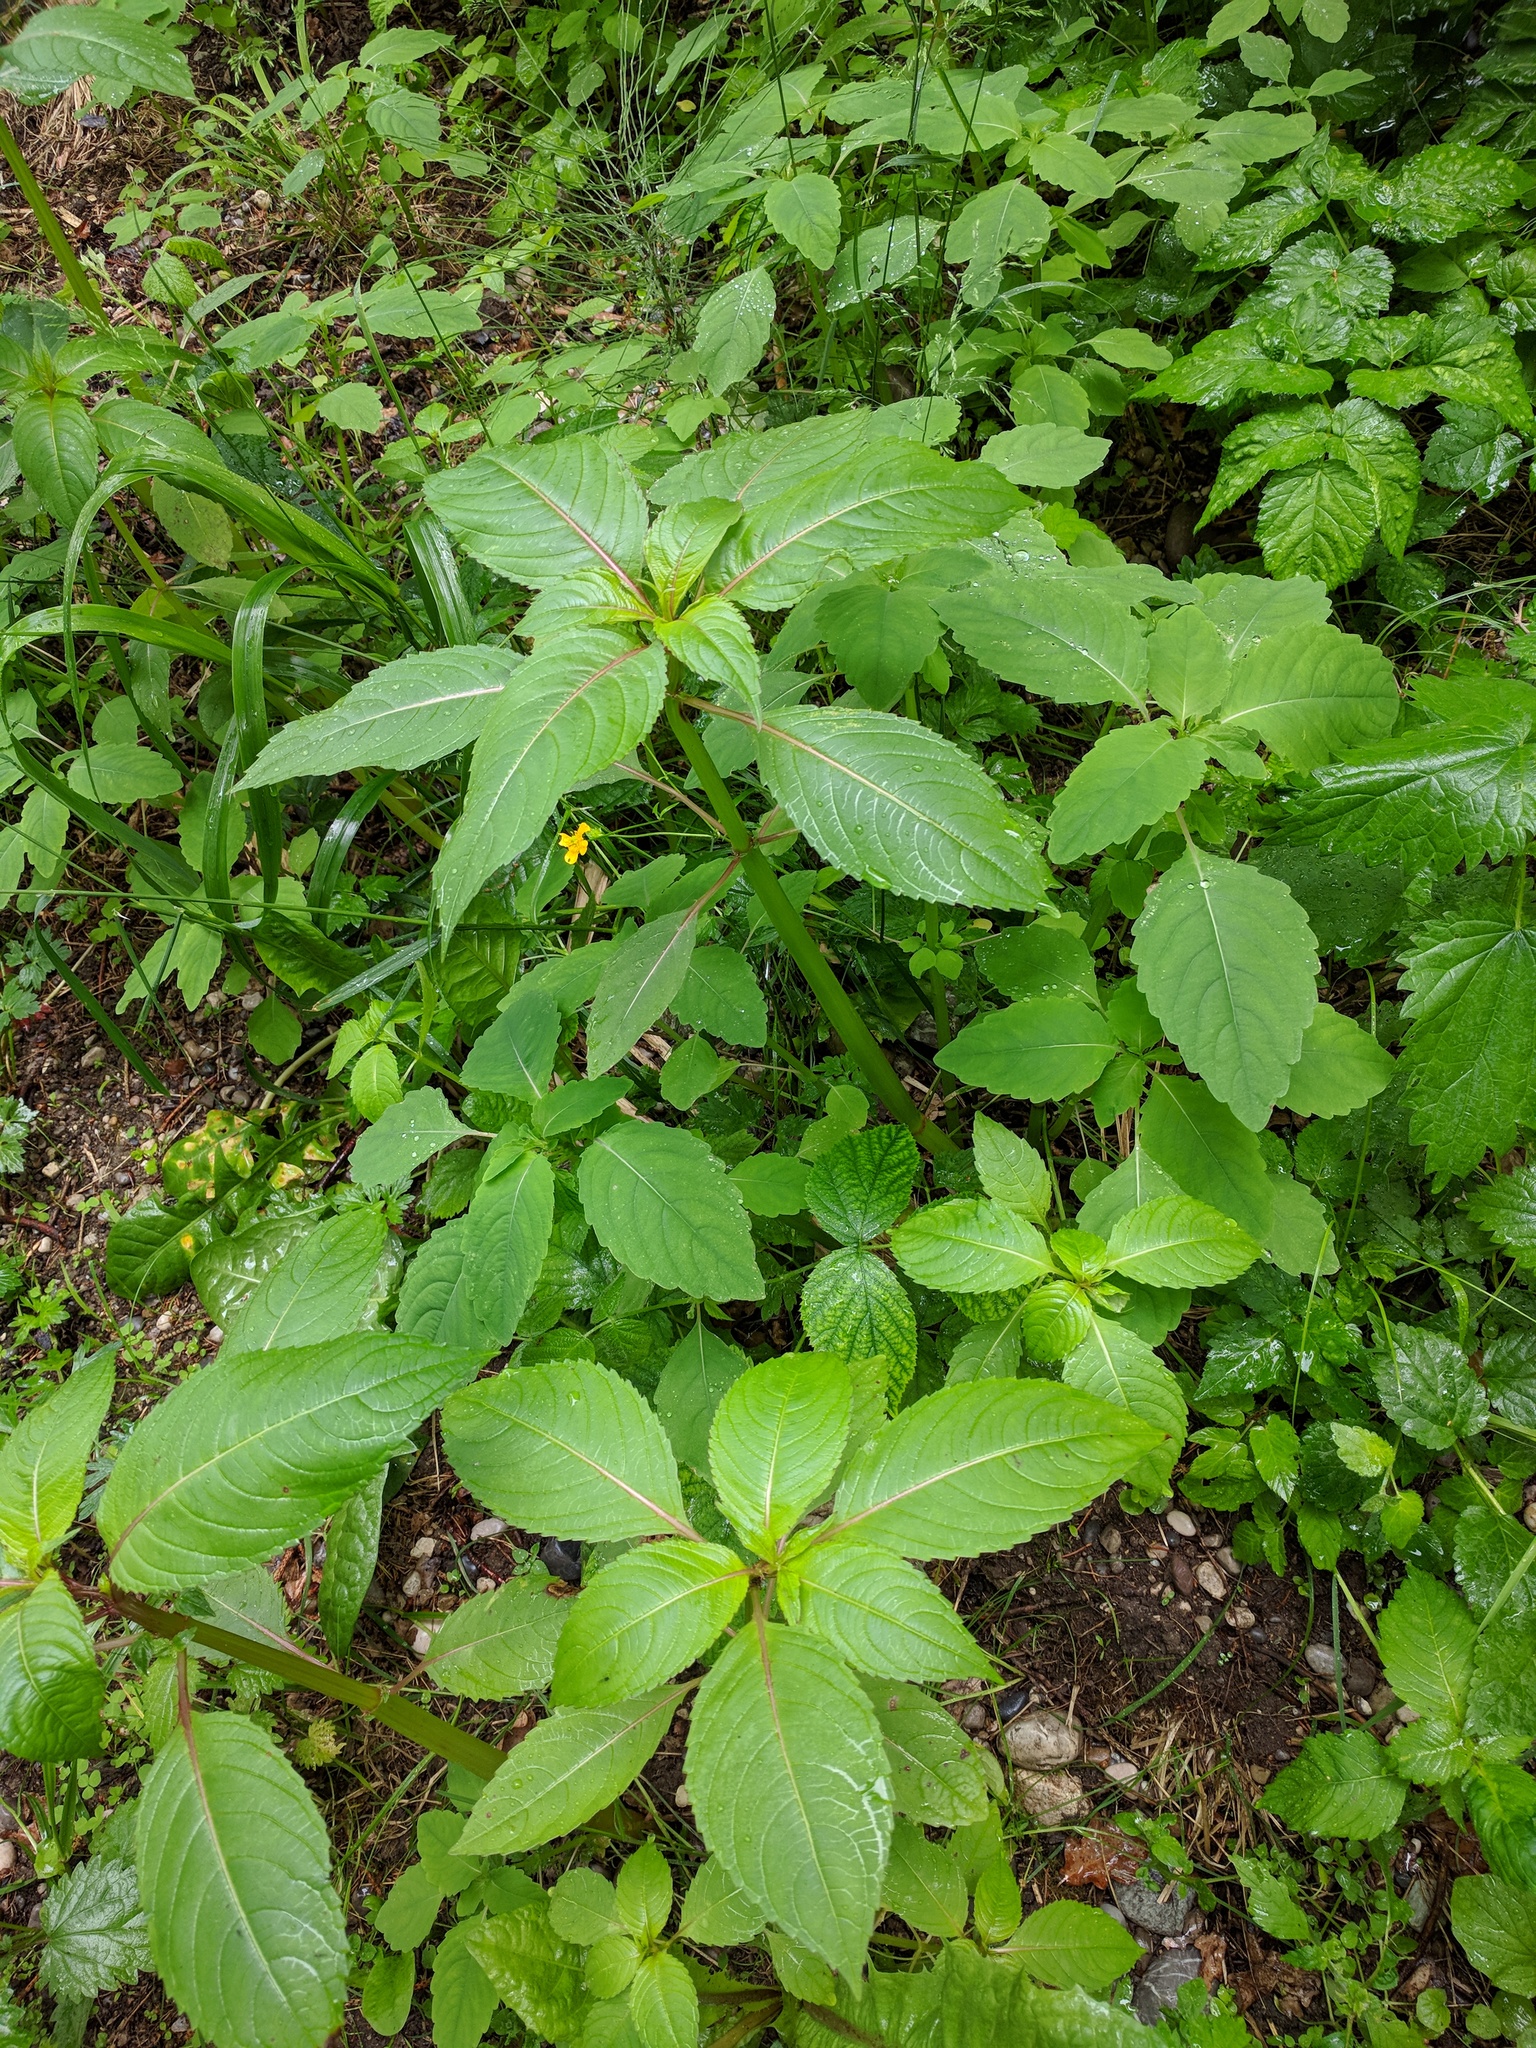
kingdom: Plantae
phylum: Tracheophyta
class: Magnoliopsida
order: Ericales
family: Balsaminaceae
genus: Impatiens
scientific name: Impatiens glandulifera
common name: Himalayan balsam
